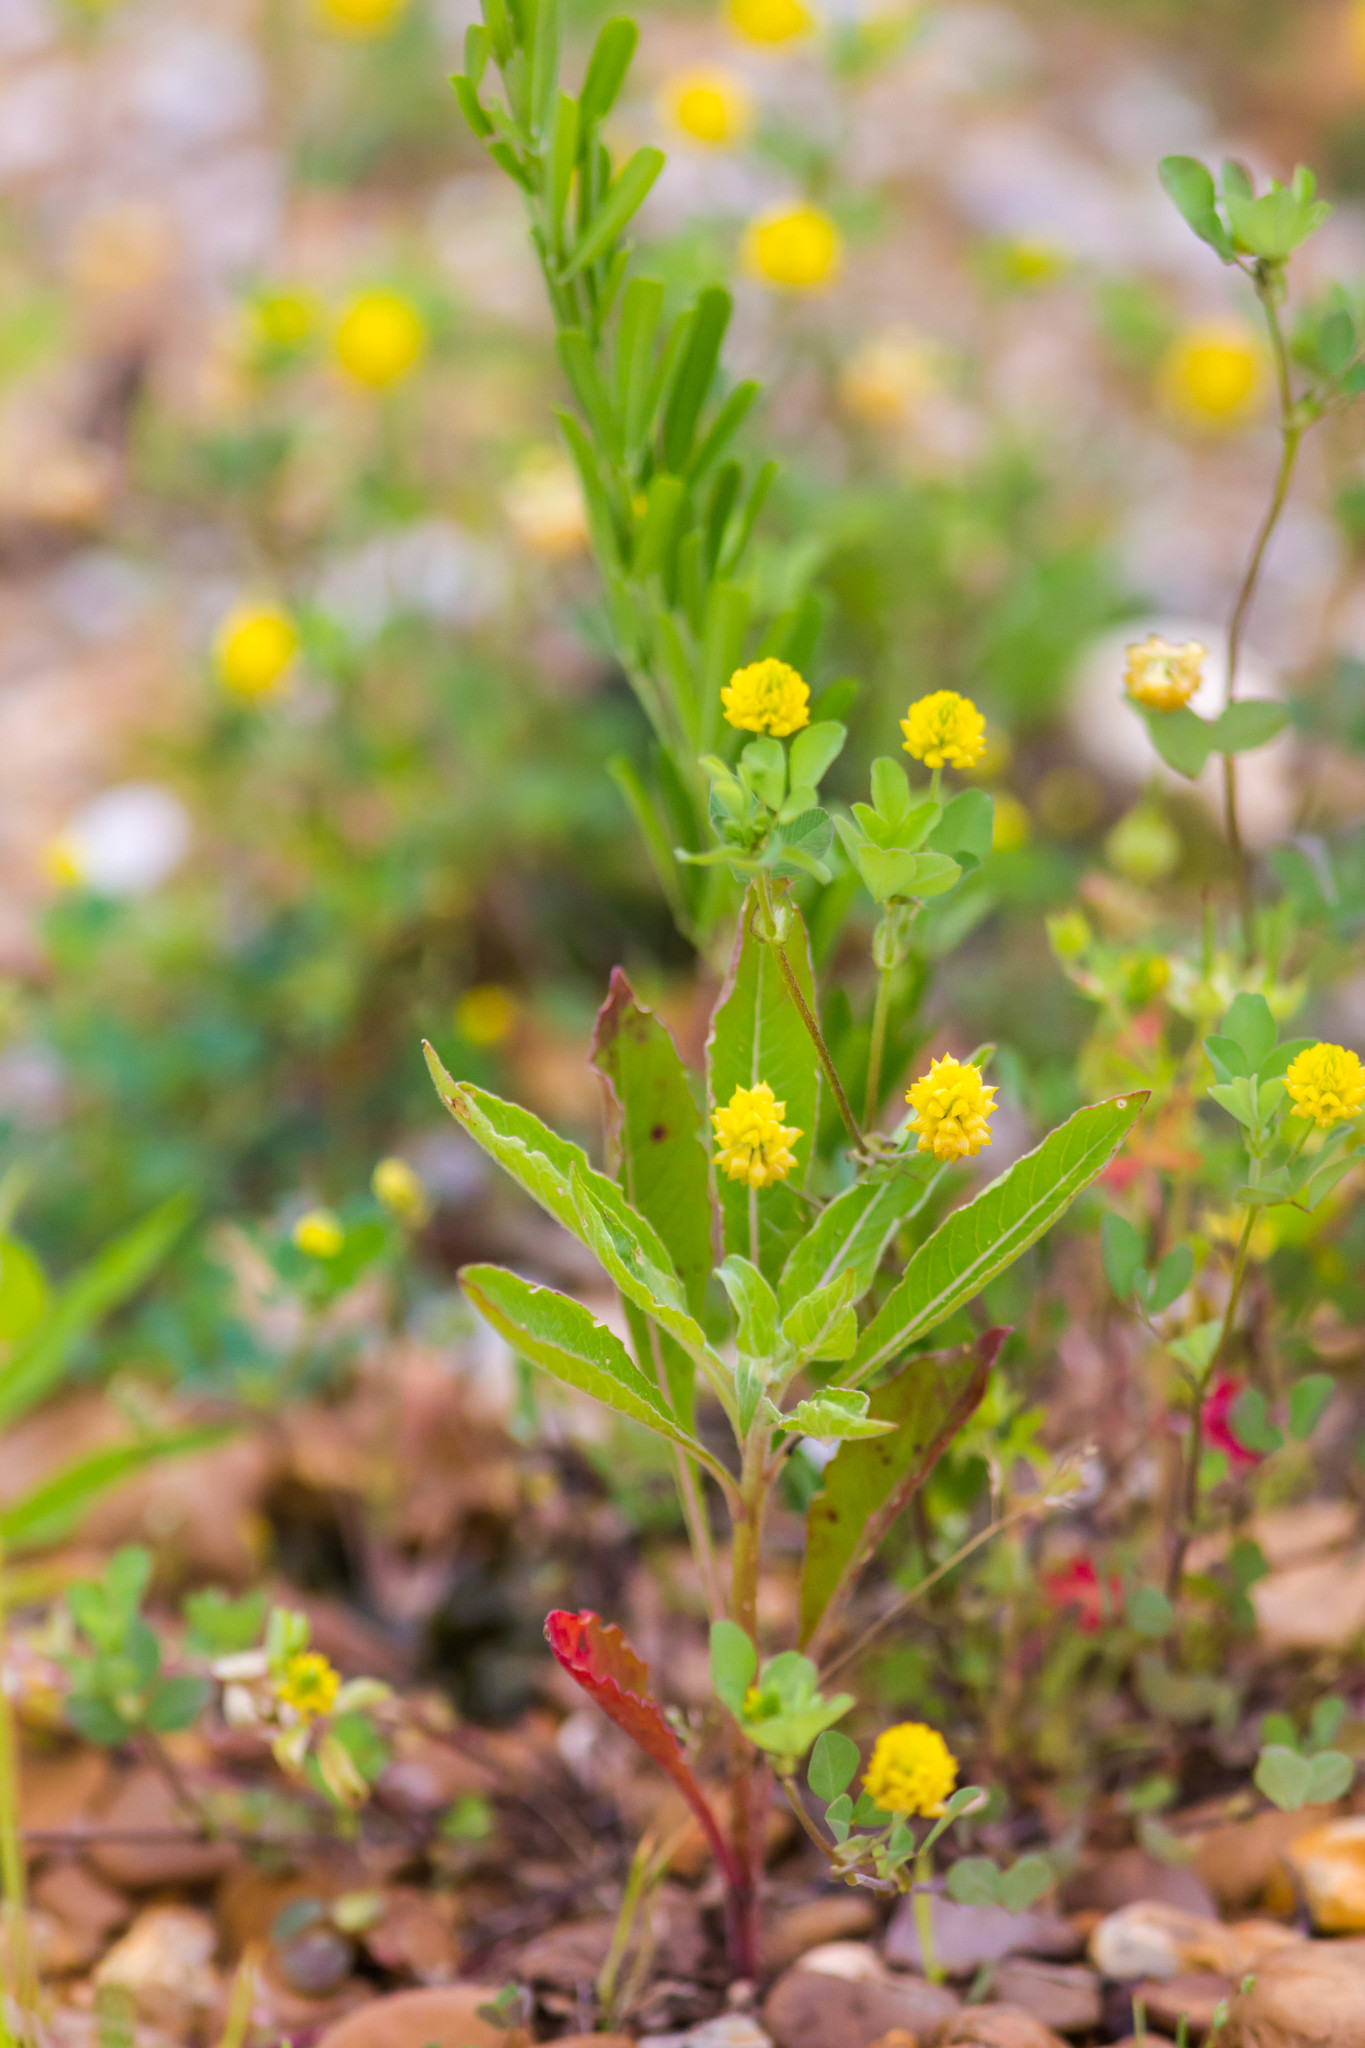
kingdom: Plantae
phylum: Tracheophyta
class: Magnoliopsida
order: Fabales
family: Fabaceae
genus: Trifolium
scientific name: Trifolium campestre
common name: Field clover
